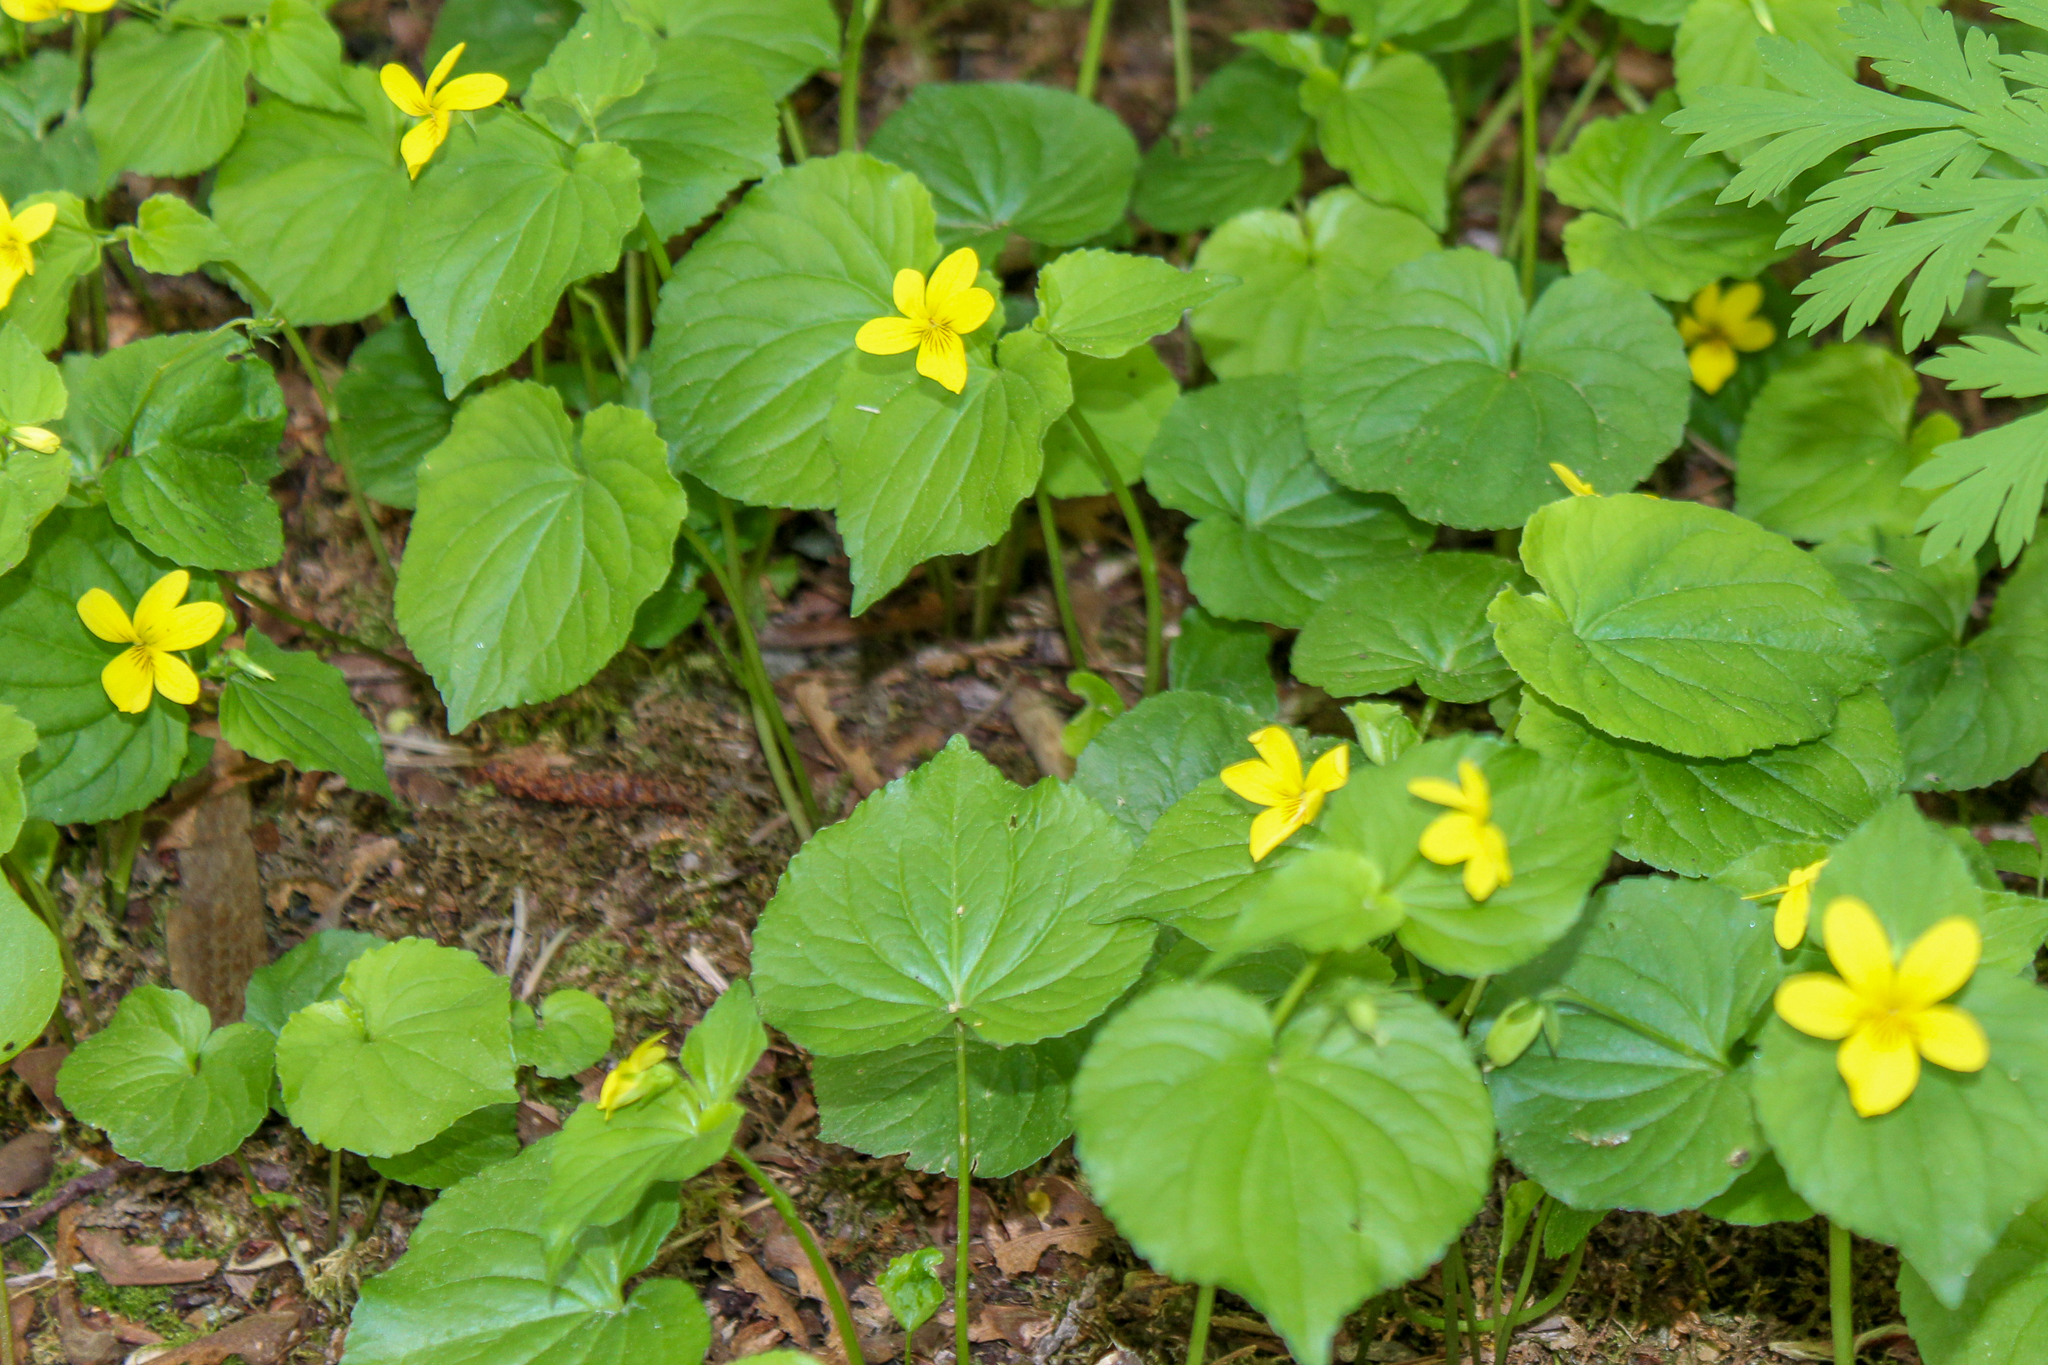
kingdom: Plantae
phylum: Tracheophyta
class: Magnoliopsida
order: Malpighiales
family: Violaceae
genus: Viola
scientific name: Viola glabella
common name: Stream violet
